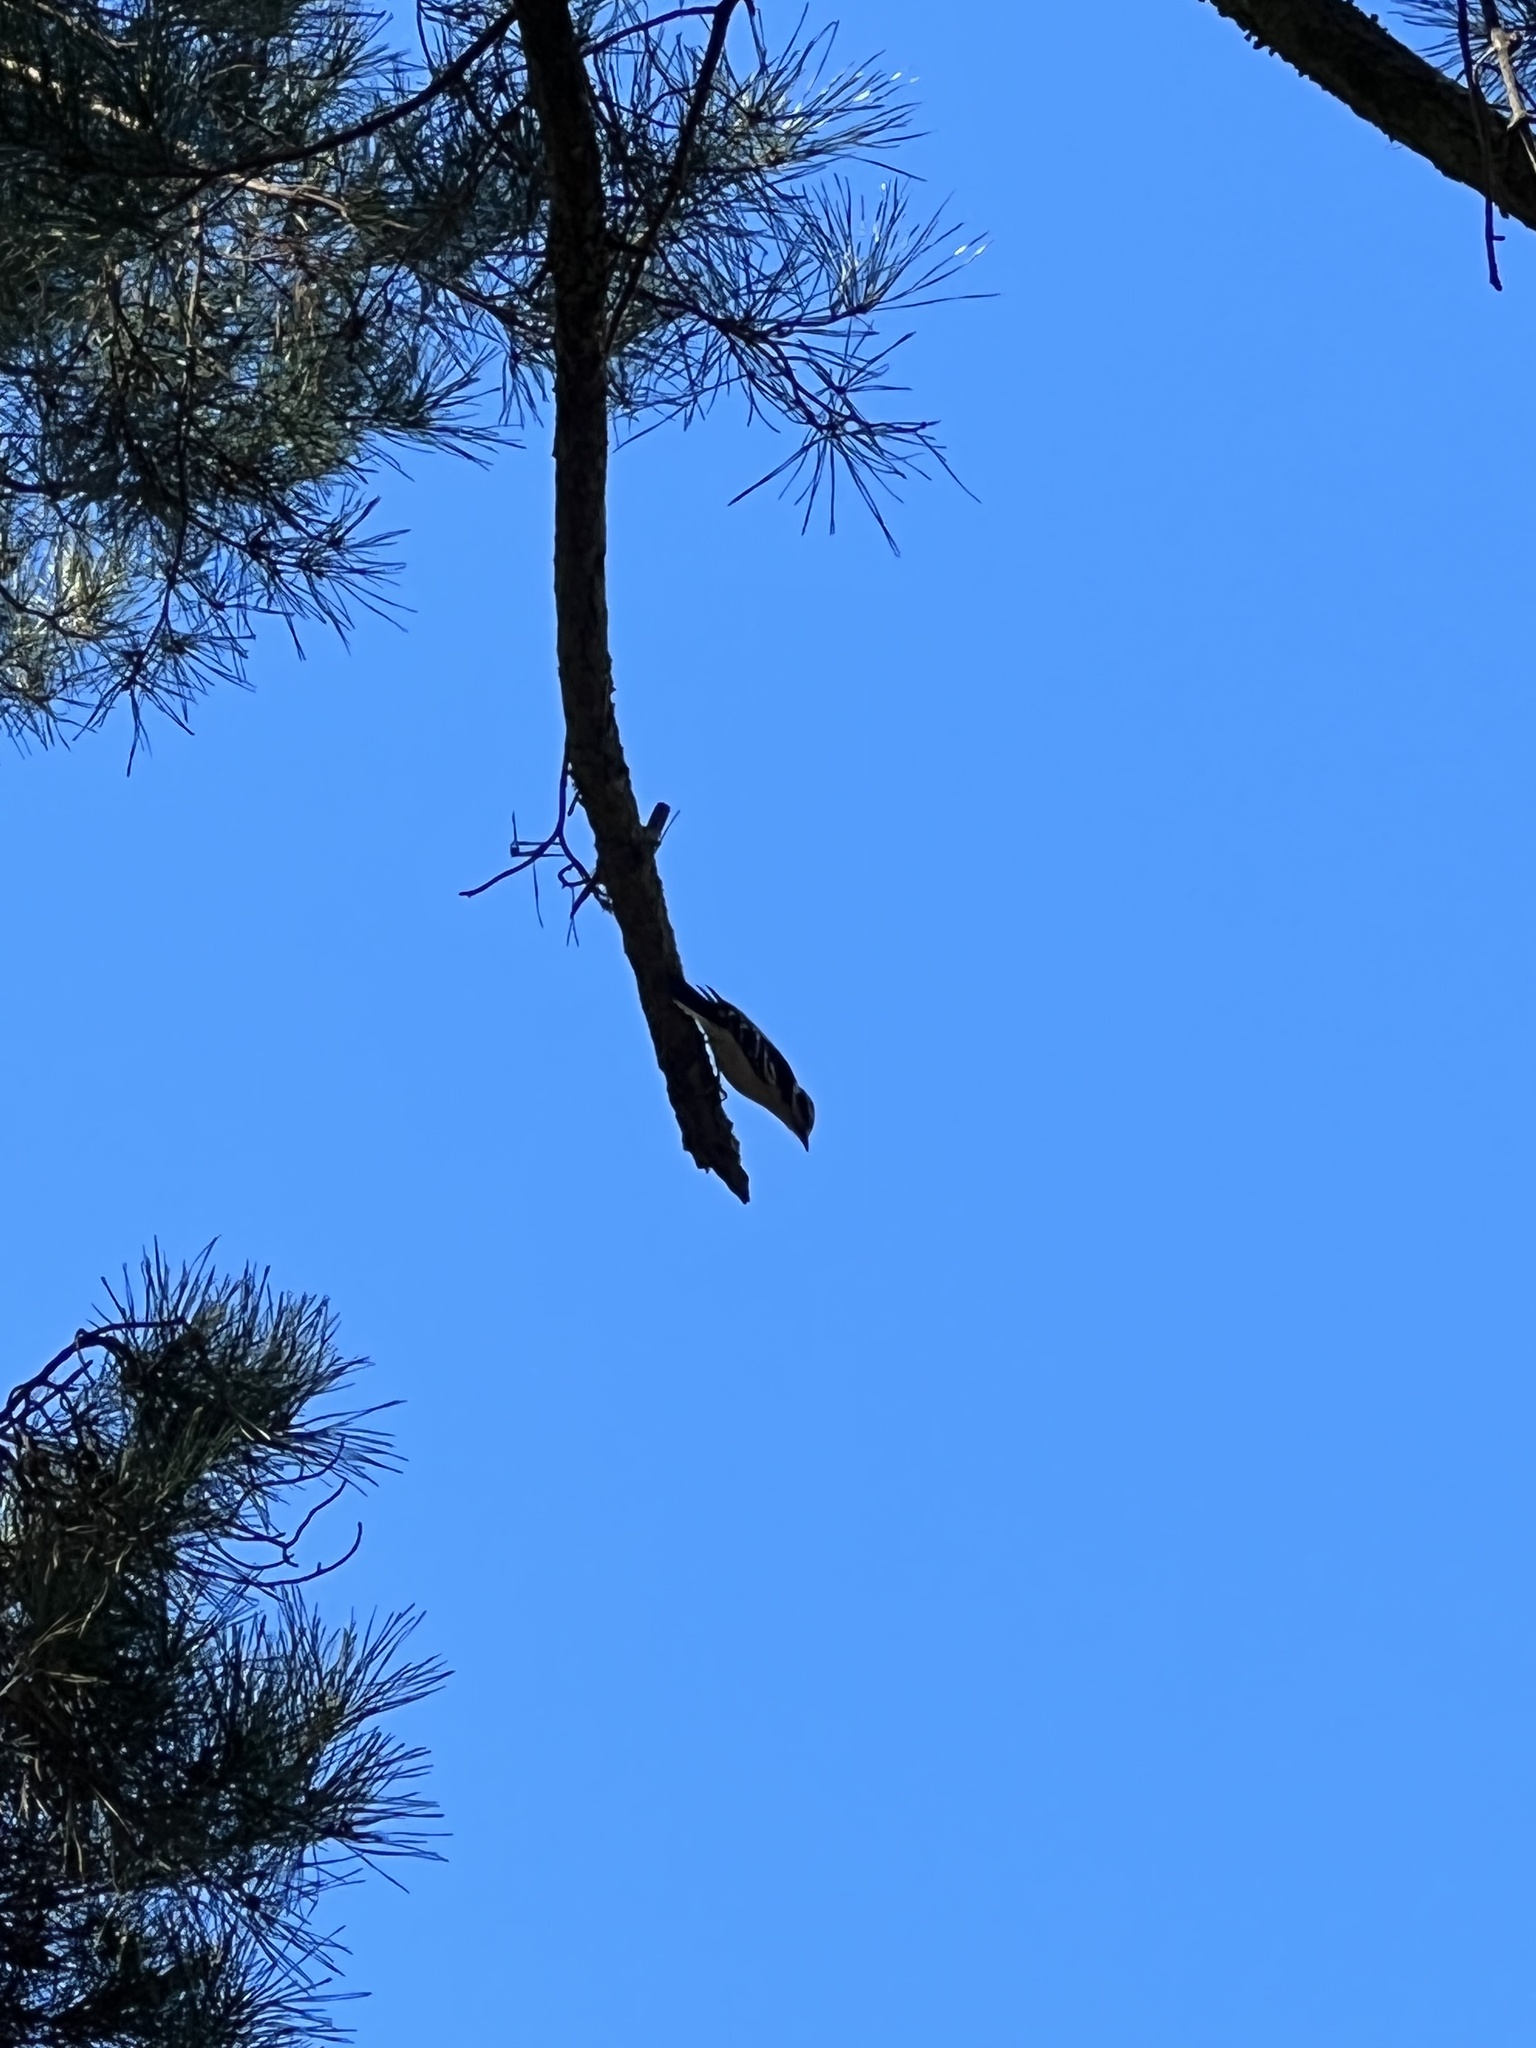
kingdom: Animalia
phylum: Chordata
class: Aves
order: Piciformes
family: Picidae
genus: Dryobates
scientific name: Dryobates pubescens
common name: Downy woodpecker
